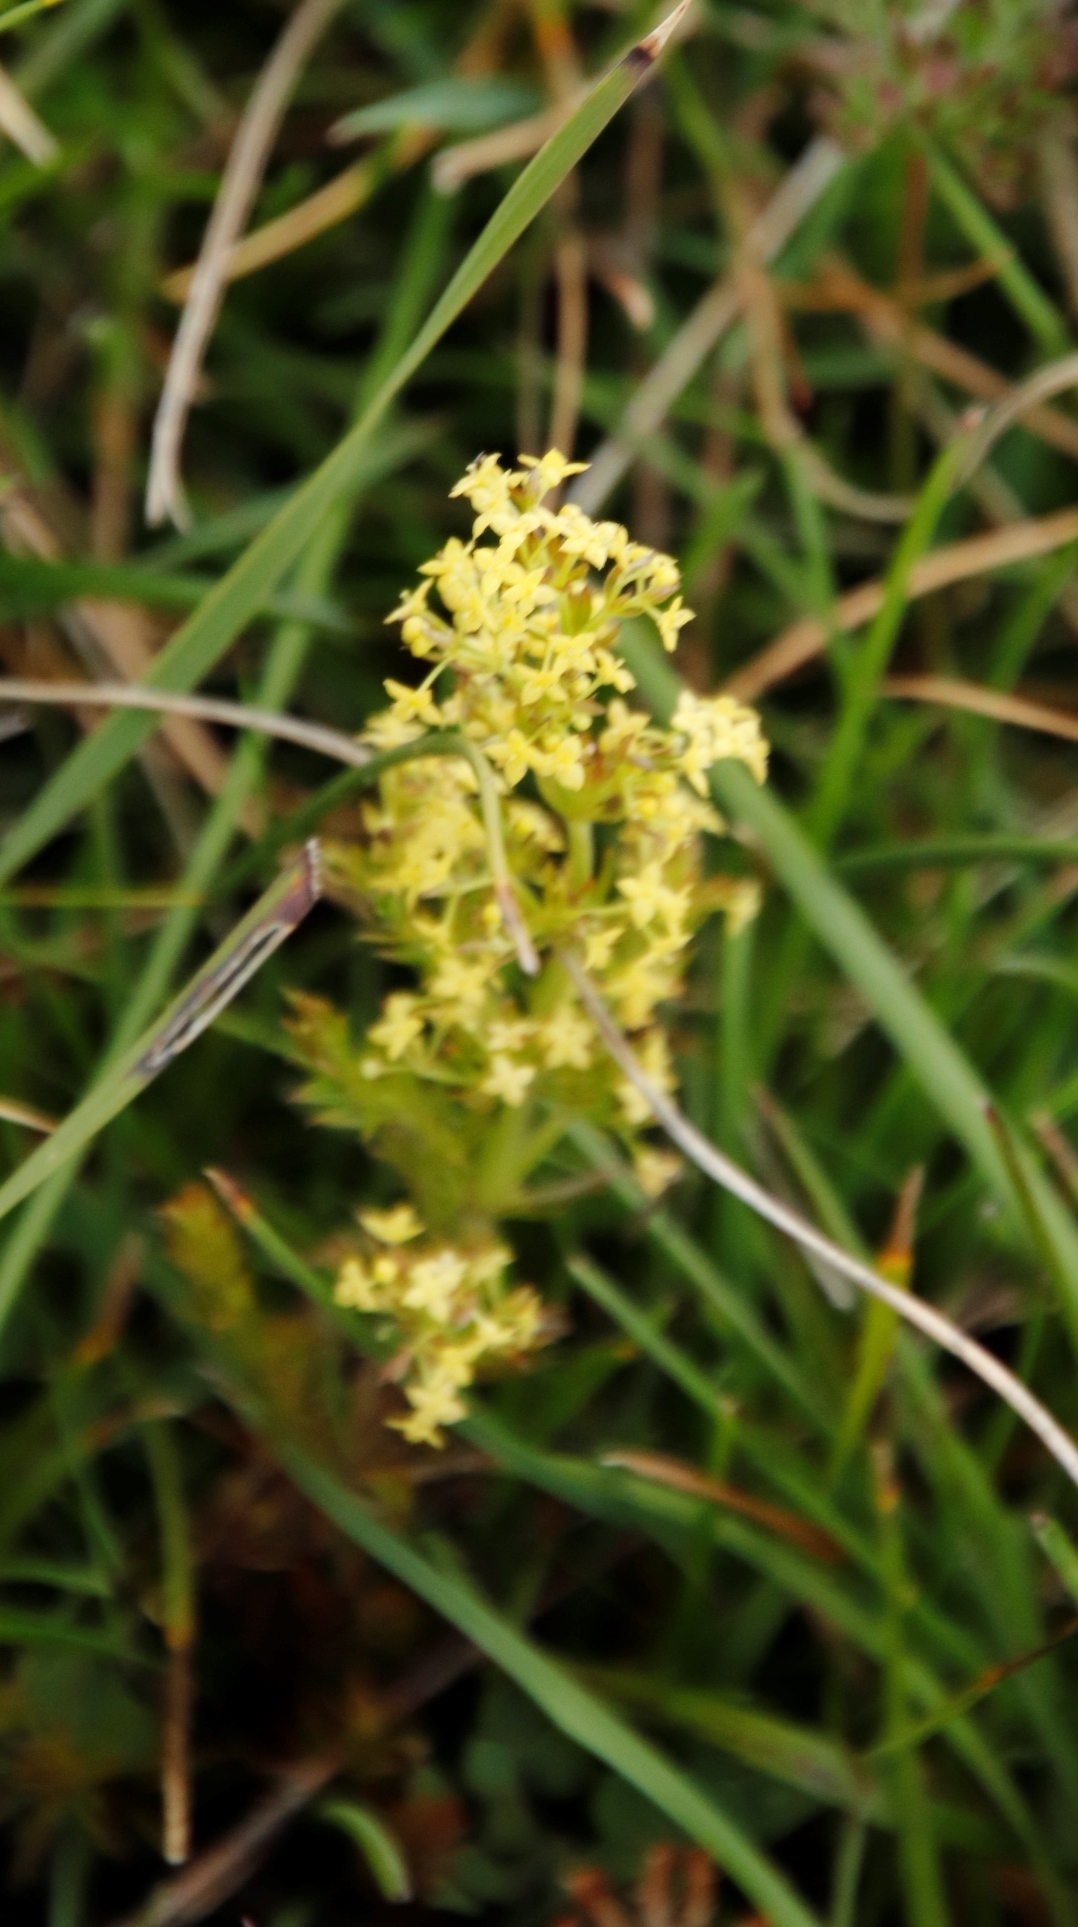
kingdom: Plantae
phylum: Tracheophyta
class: Magnoliopsida
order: Gentianales
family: Rubiaceae
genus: Galium
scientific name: Galium capense
